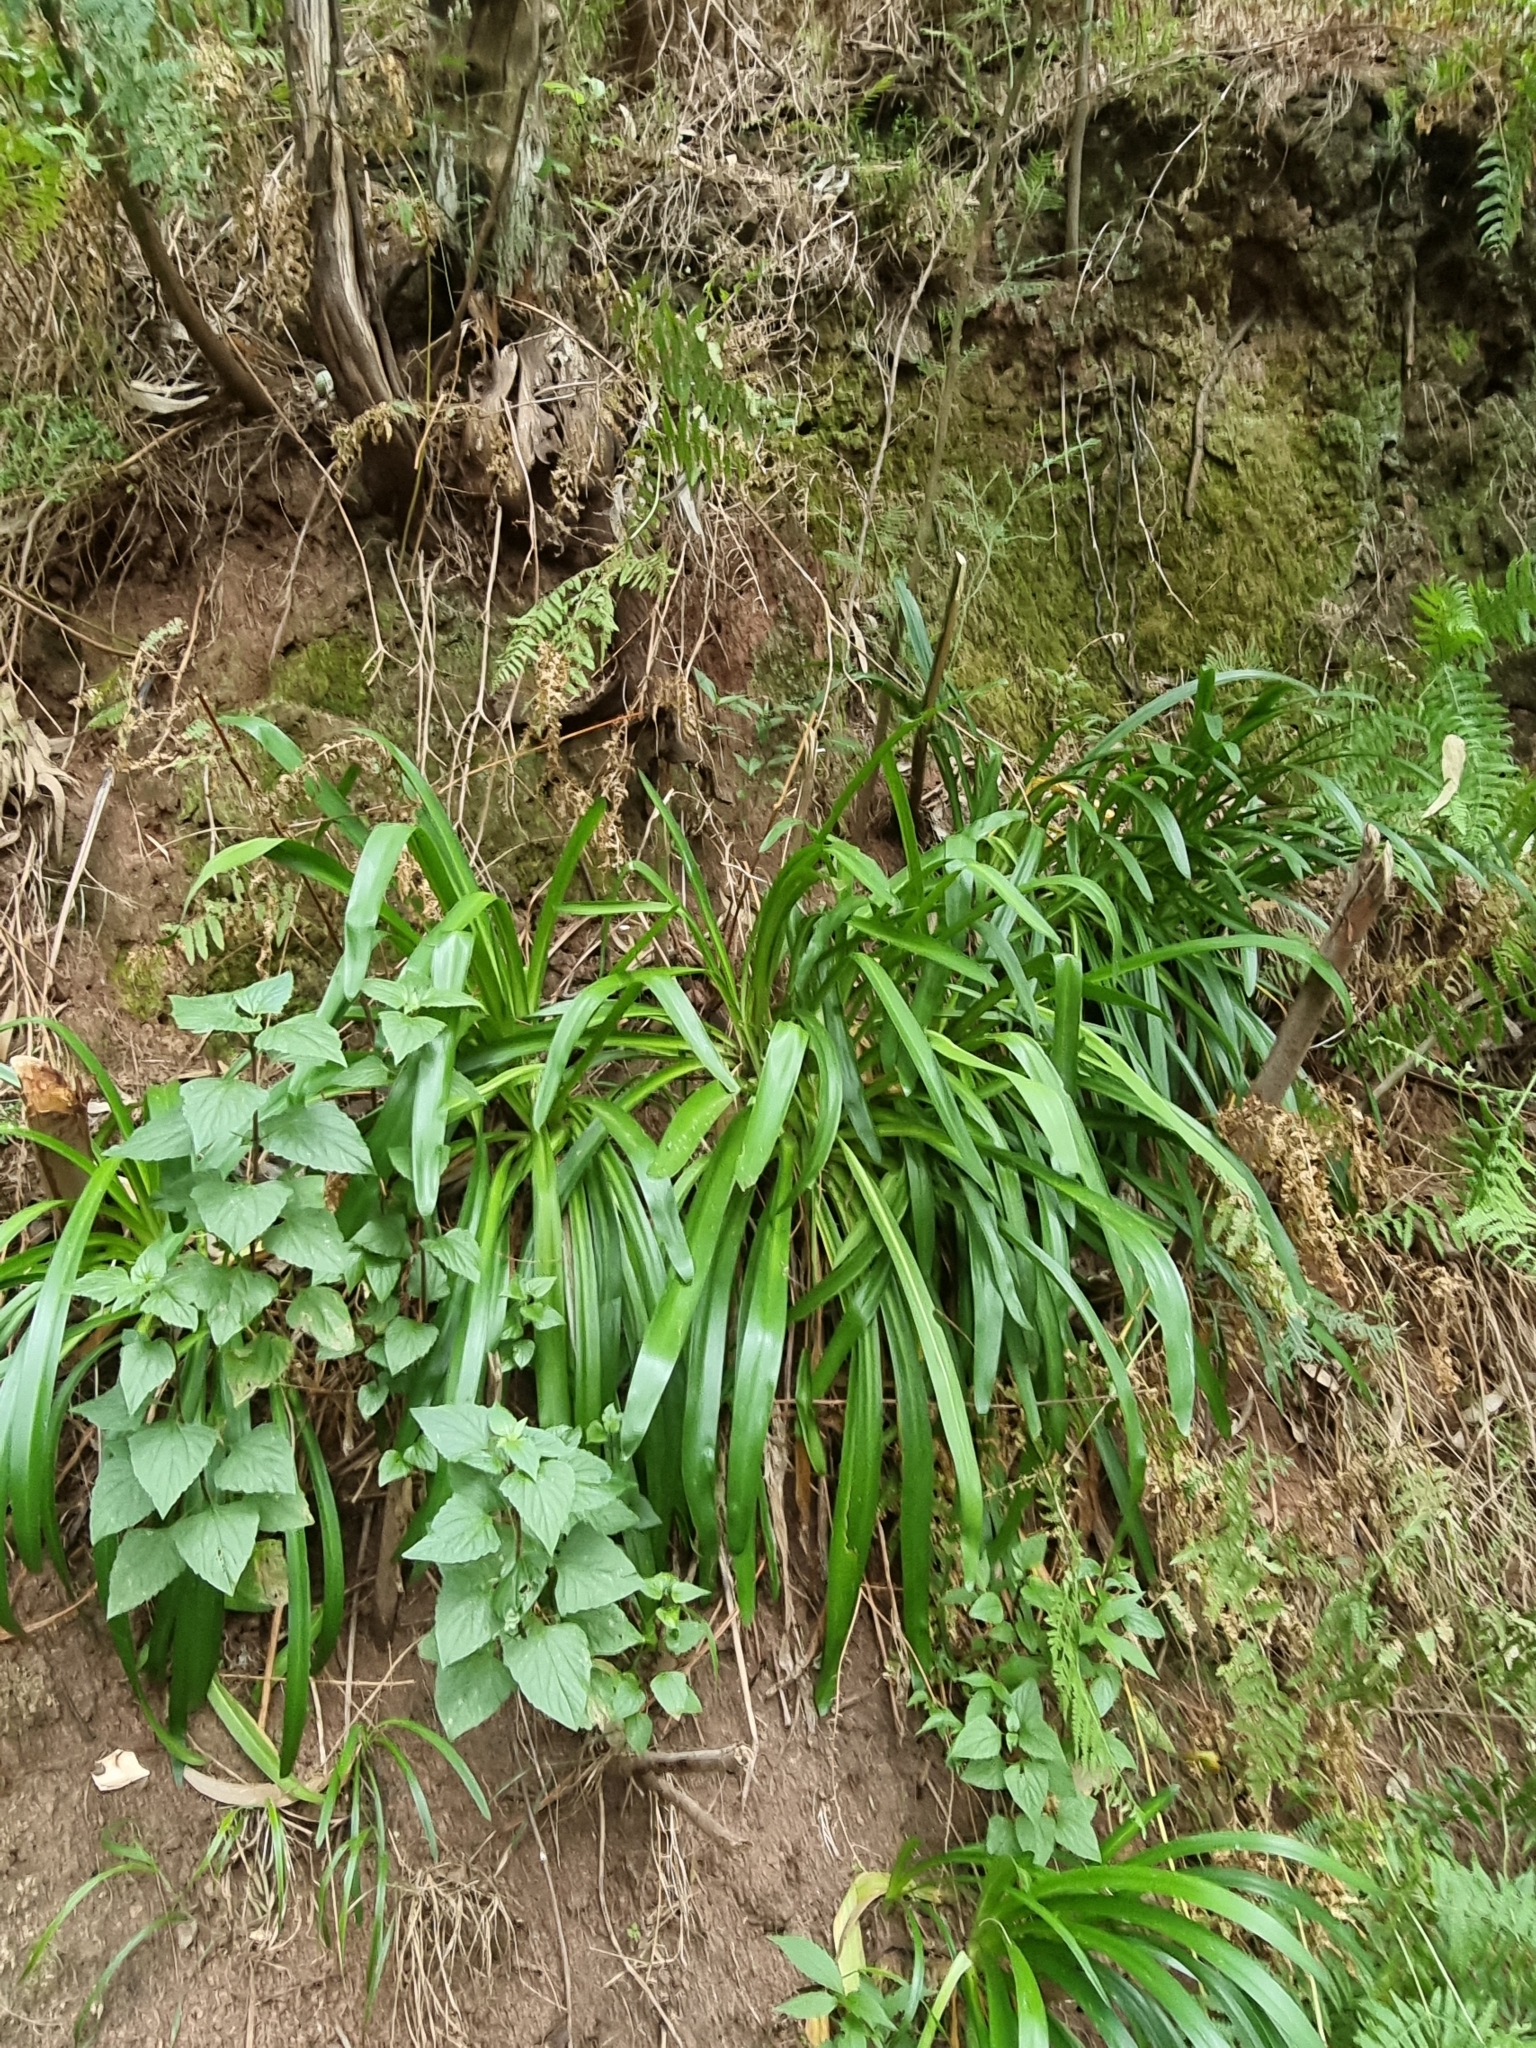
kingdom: Plantae
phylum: Tracheophyta
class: Liliopsida
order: Asparagales
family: Amaryllidaceae
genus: Agapanthus
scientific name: Agapanthus praecox
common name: African-lily
